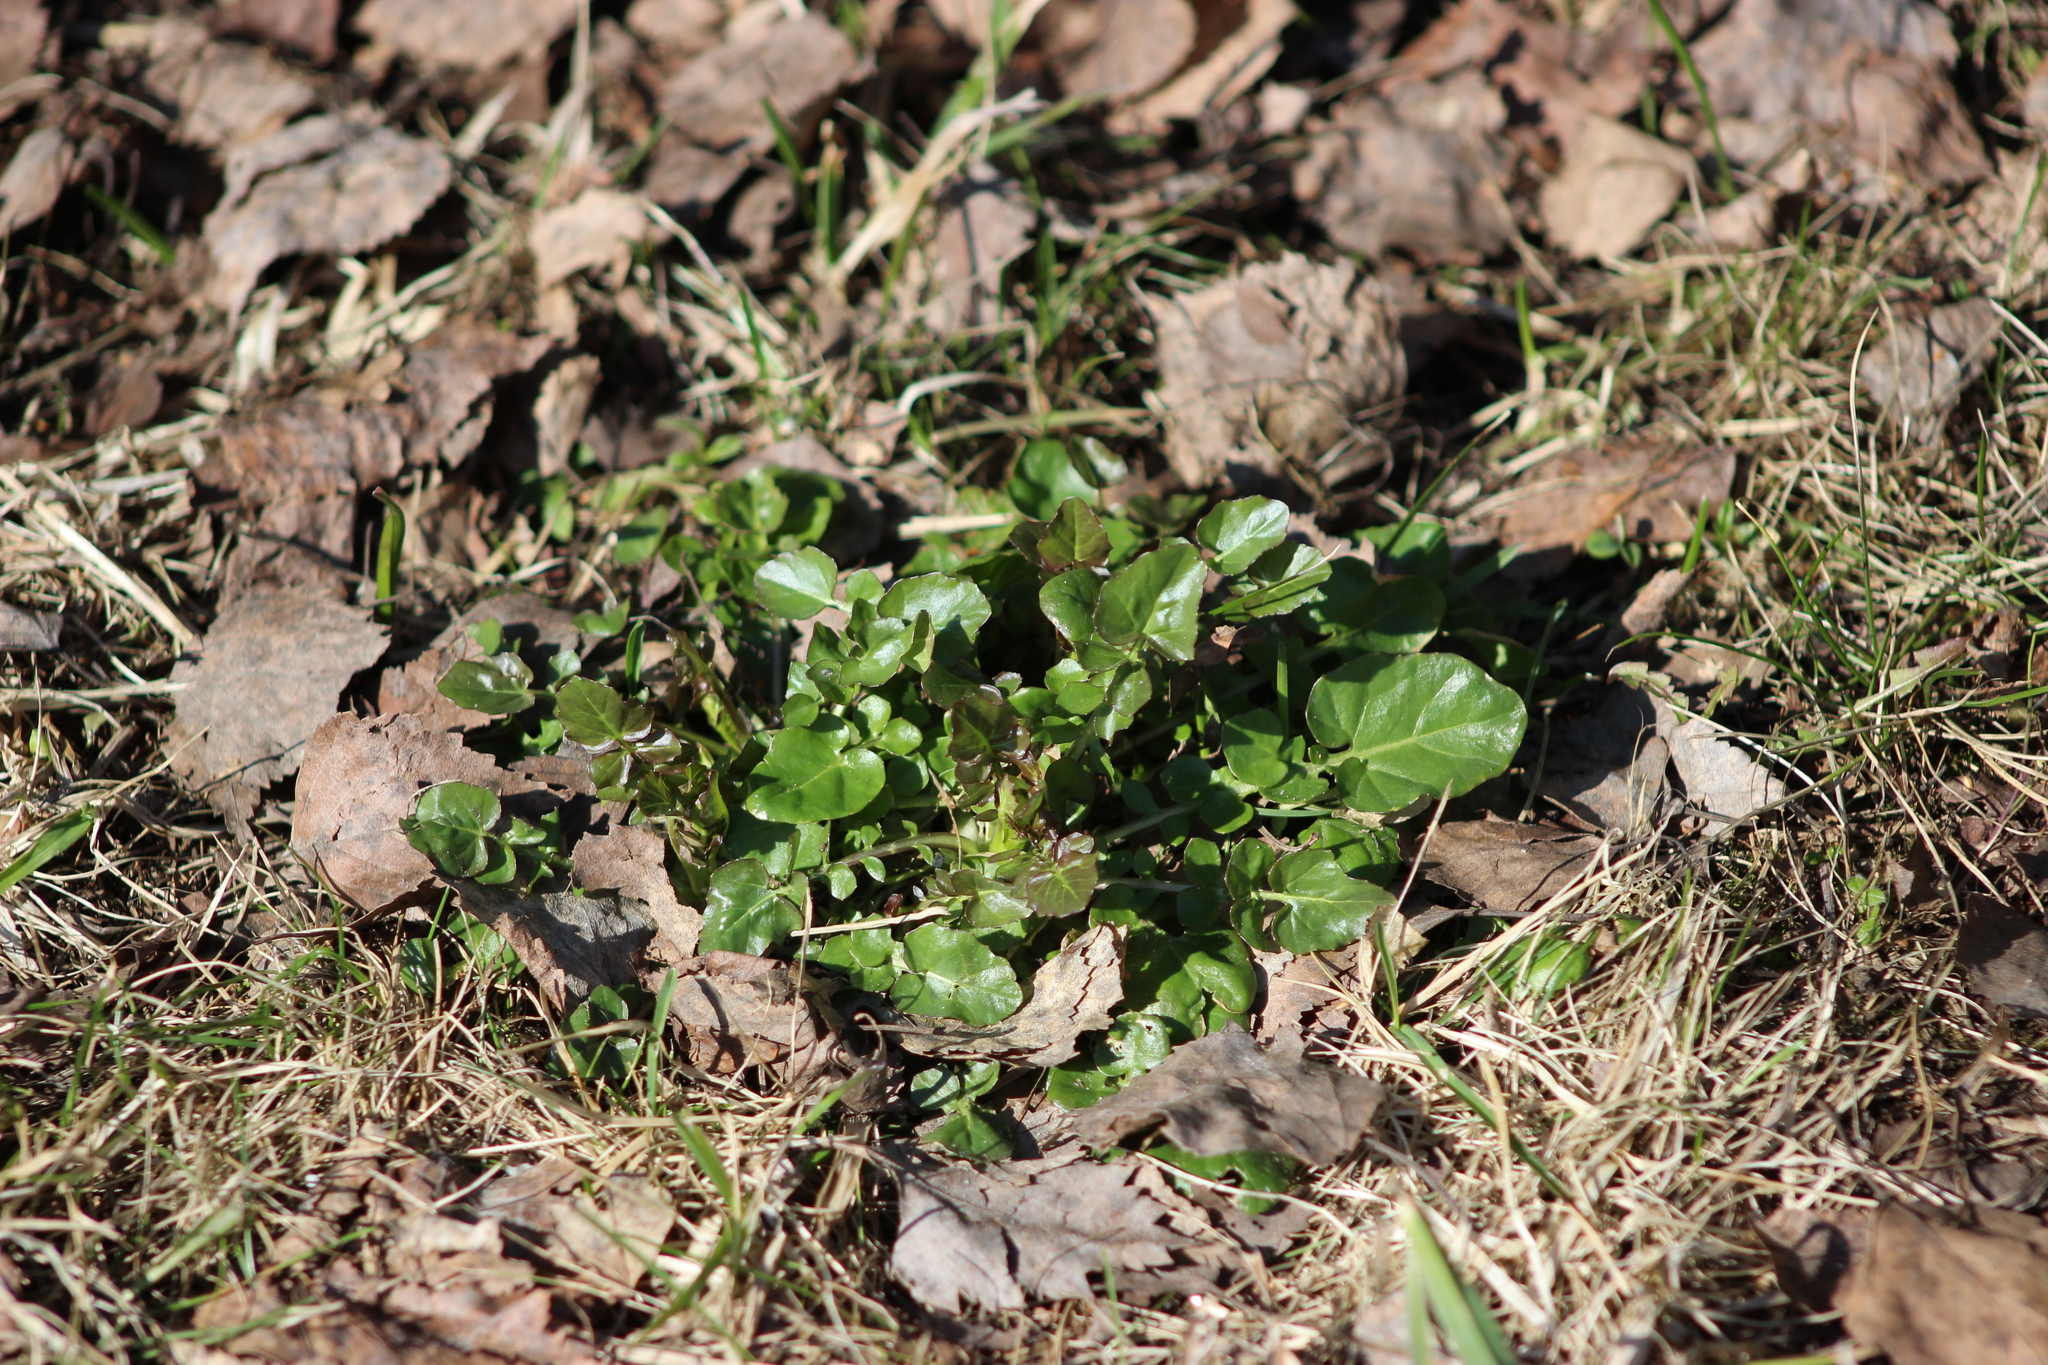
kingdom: Plantae
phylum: Tracheophyta
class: Magnoliopsida
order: Brassicales
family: Brassicaceae
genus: Barbarea
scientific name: Barbarea vulgaris
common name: Cressy-greens
